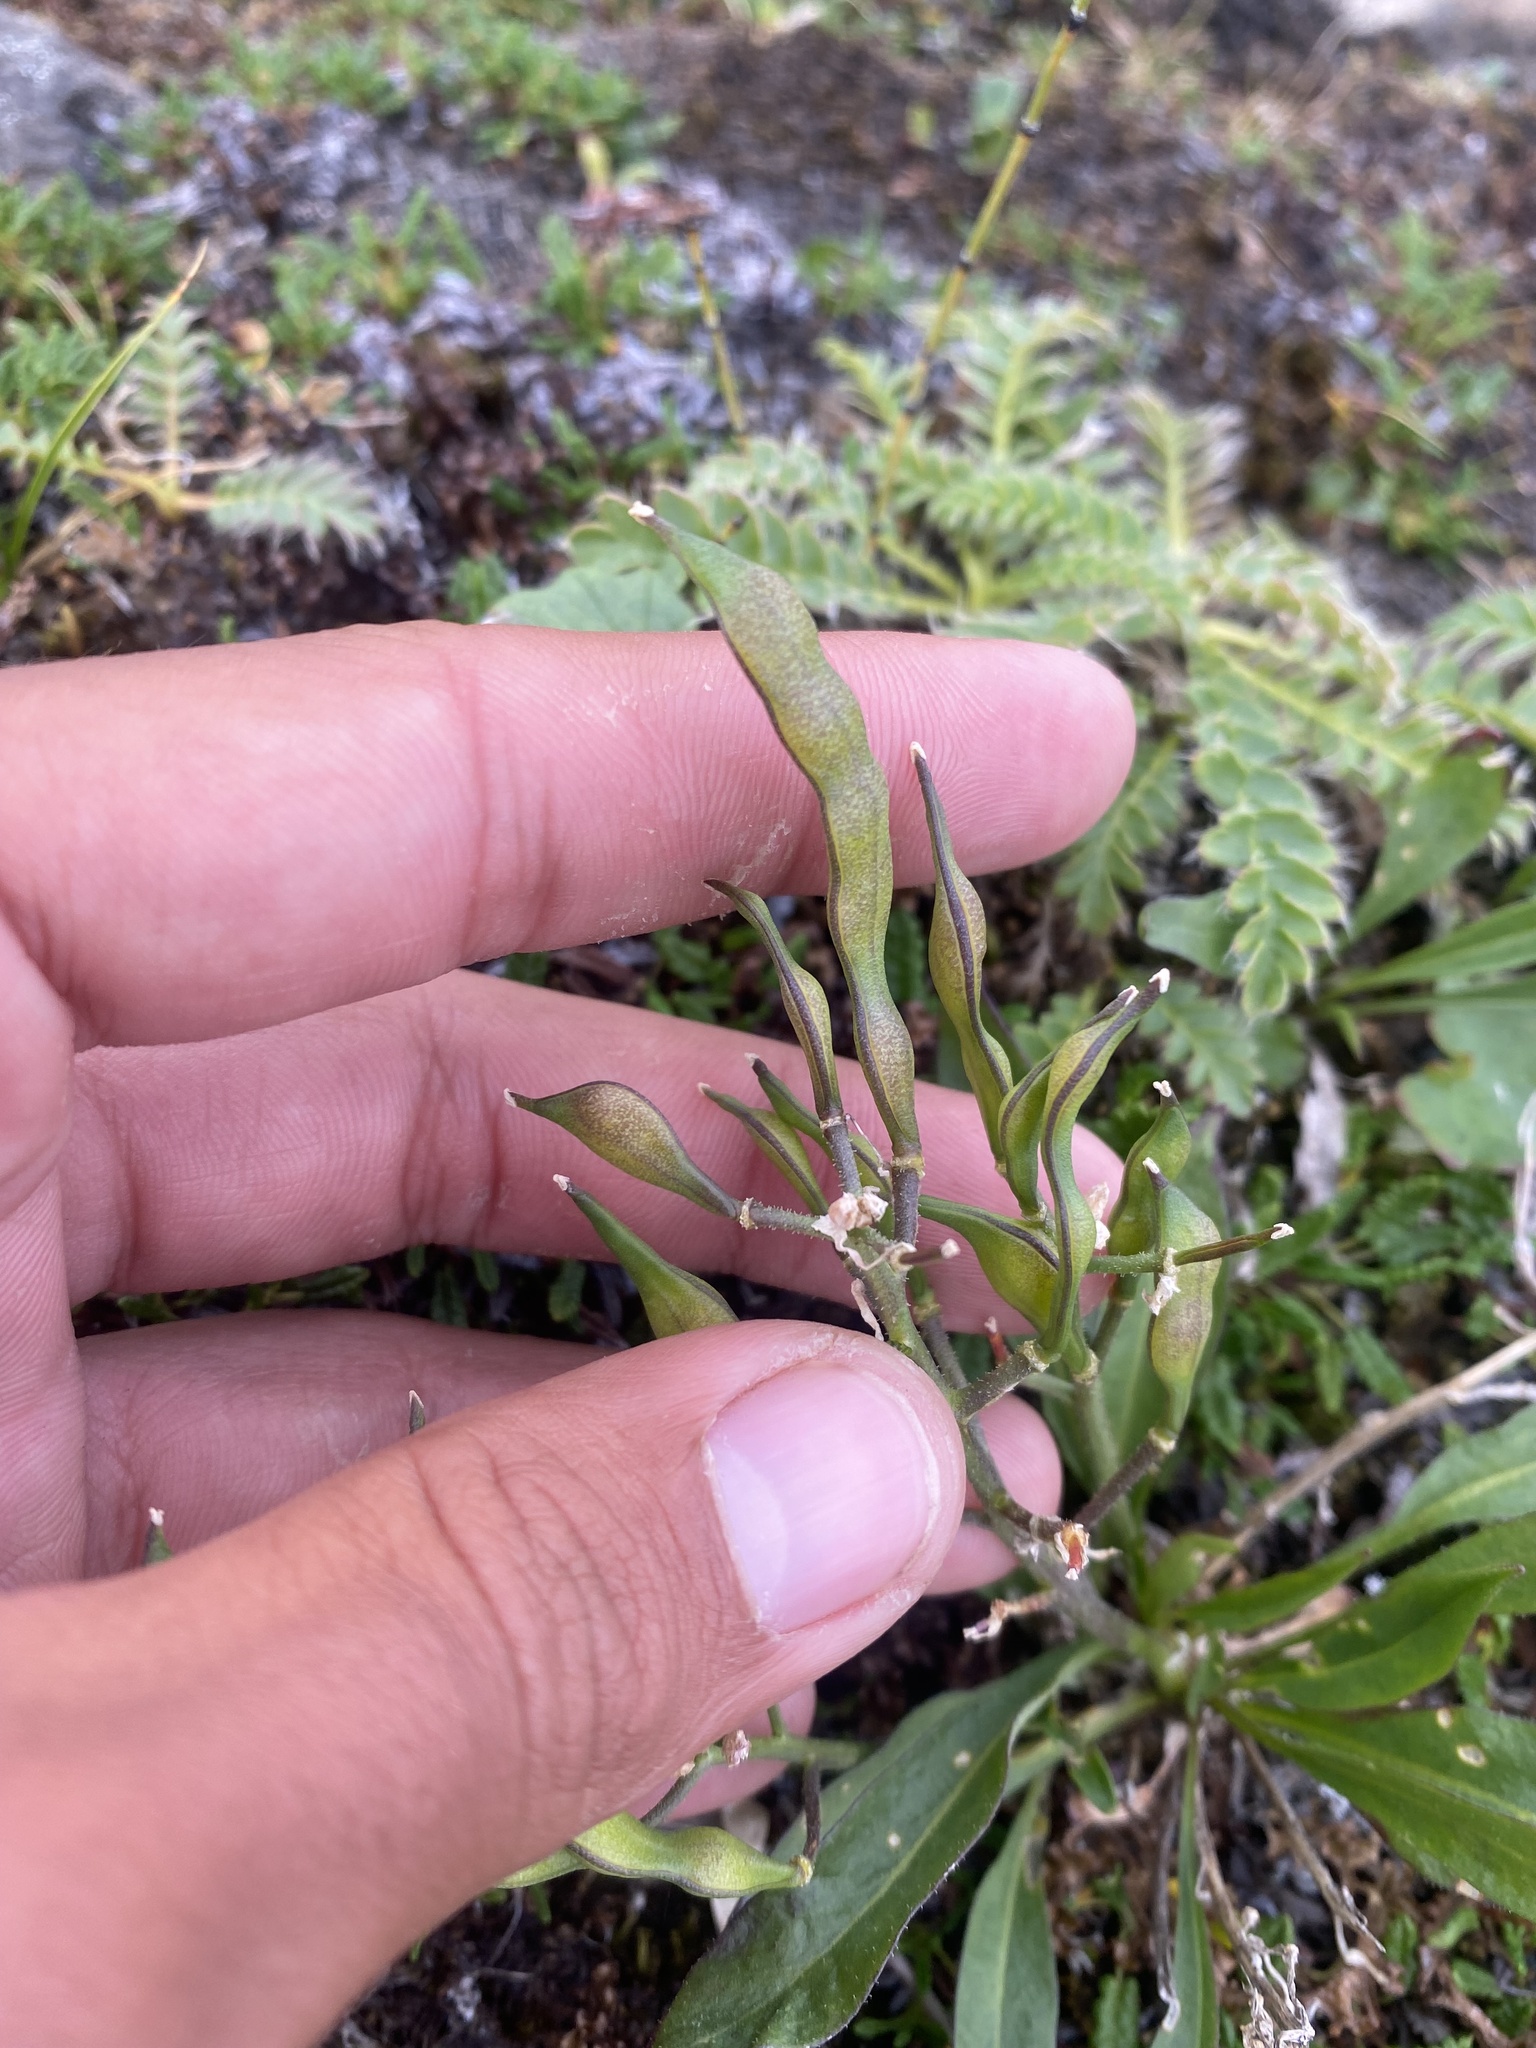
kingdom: Plantae
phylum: Tracheophyta
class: Magnoliopsida
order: Brassicales
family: Brassicaceae
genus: Parrya
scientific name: Parrya nudicaulis
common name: Naked-stemmed false wallflower
